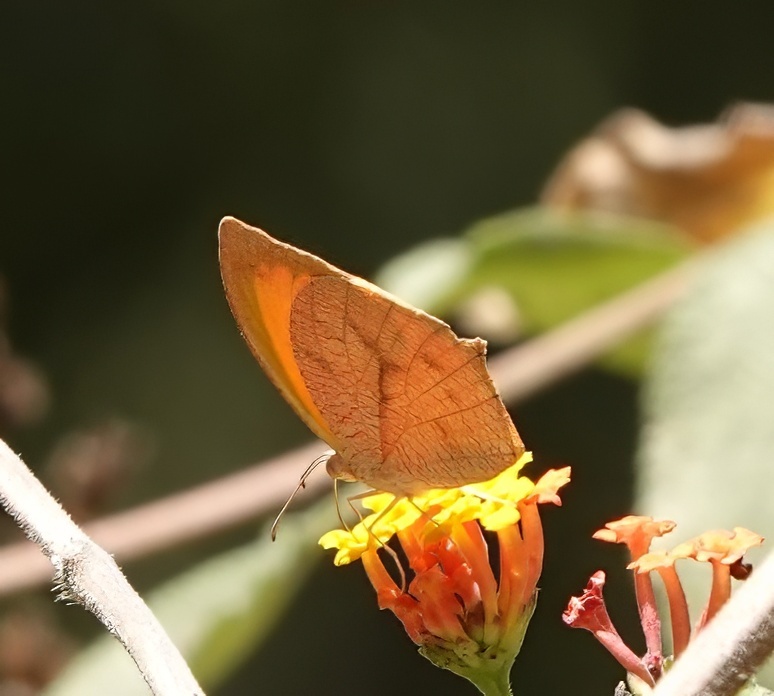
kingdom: Animalia
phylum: Arthropoda
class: Insecta
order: Lepidoptera
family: Pieridae
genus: Pyrisitia
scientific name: Pyrisitia proterpia
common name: Tailed orange
